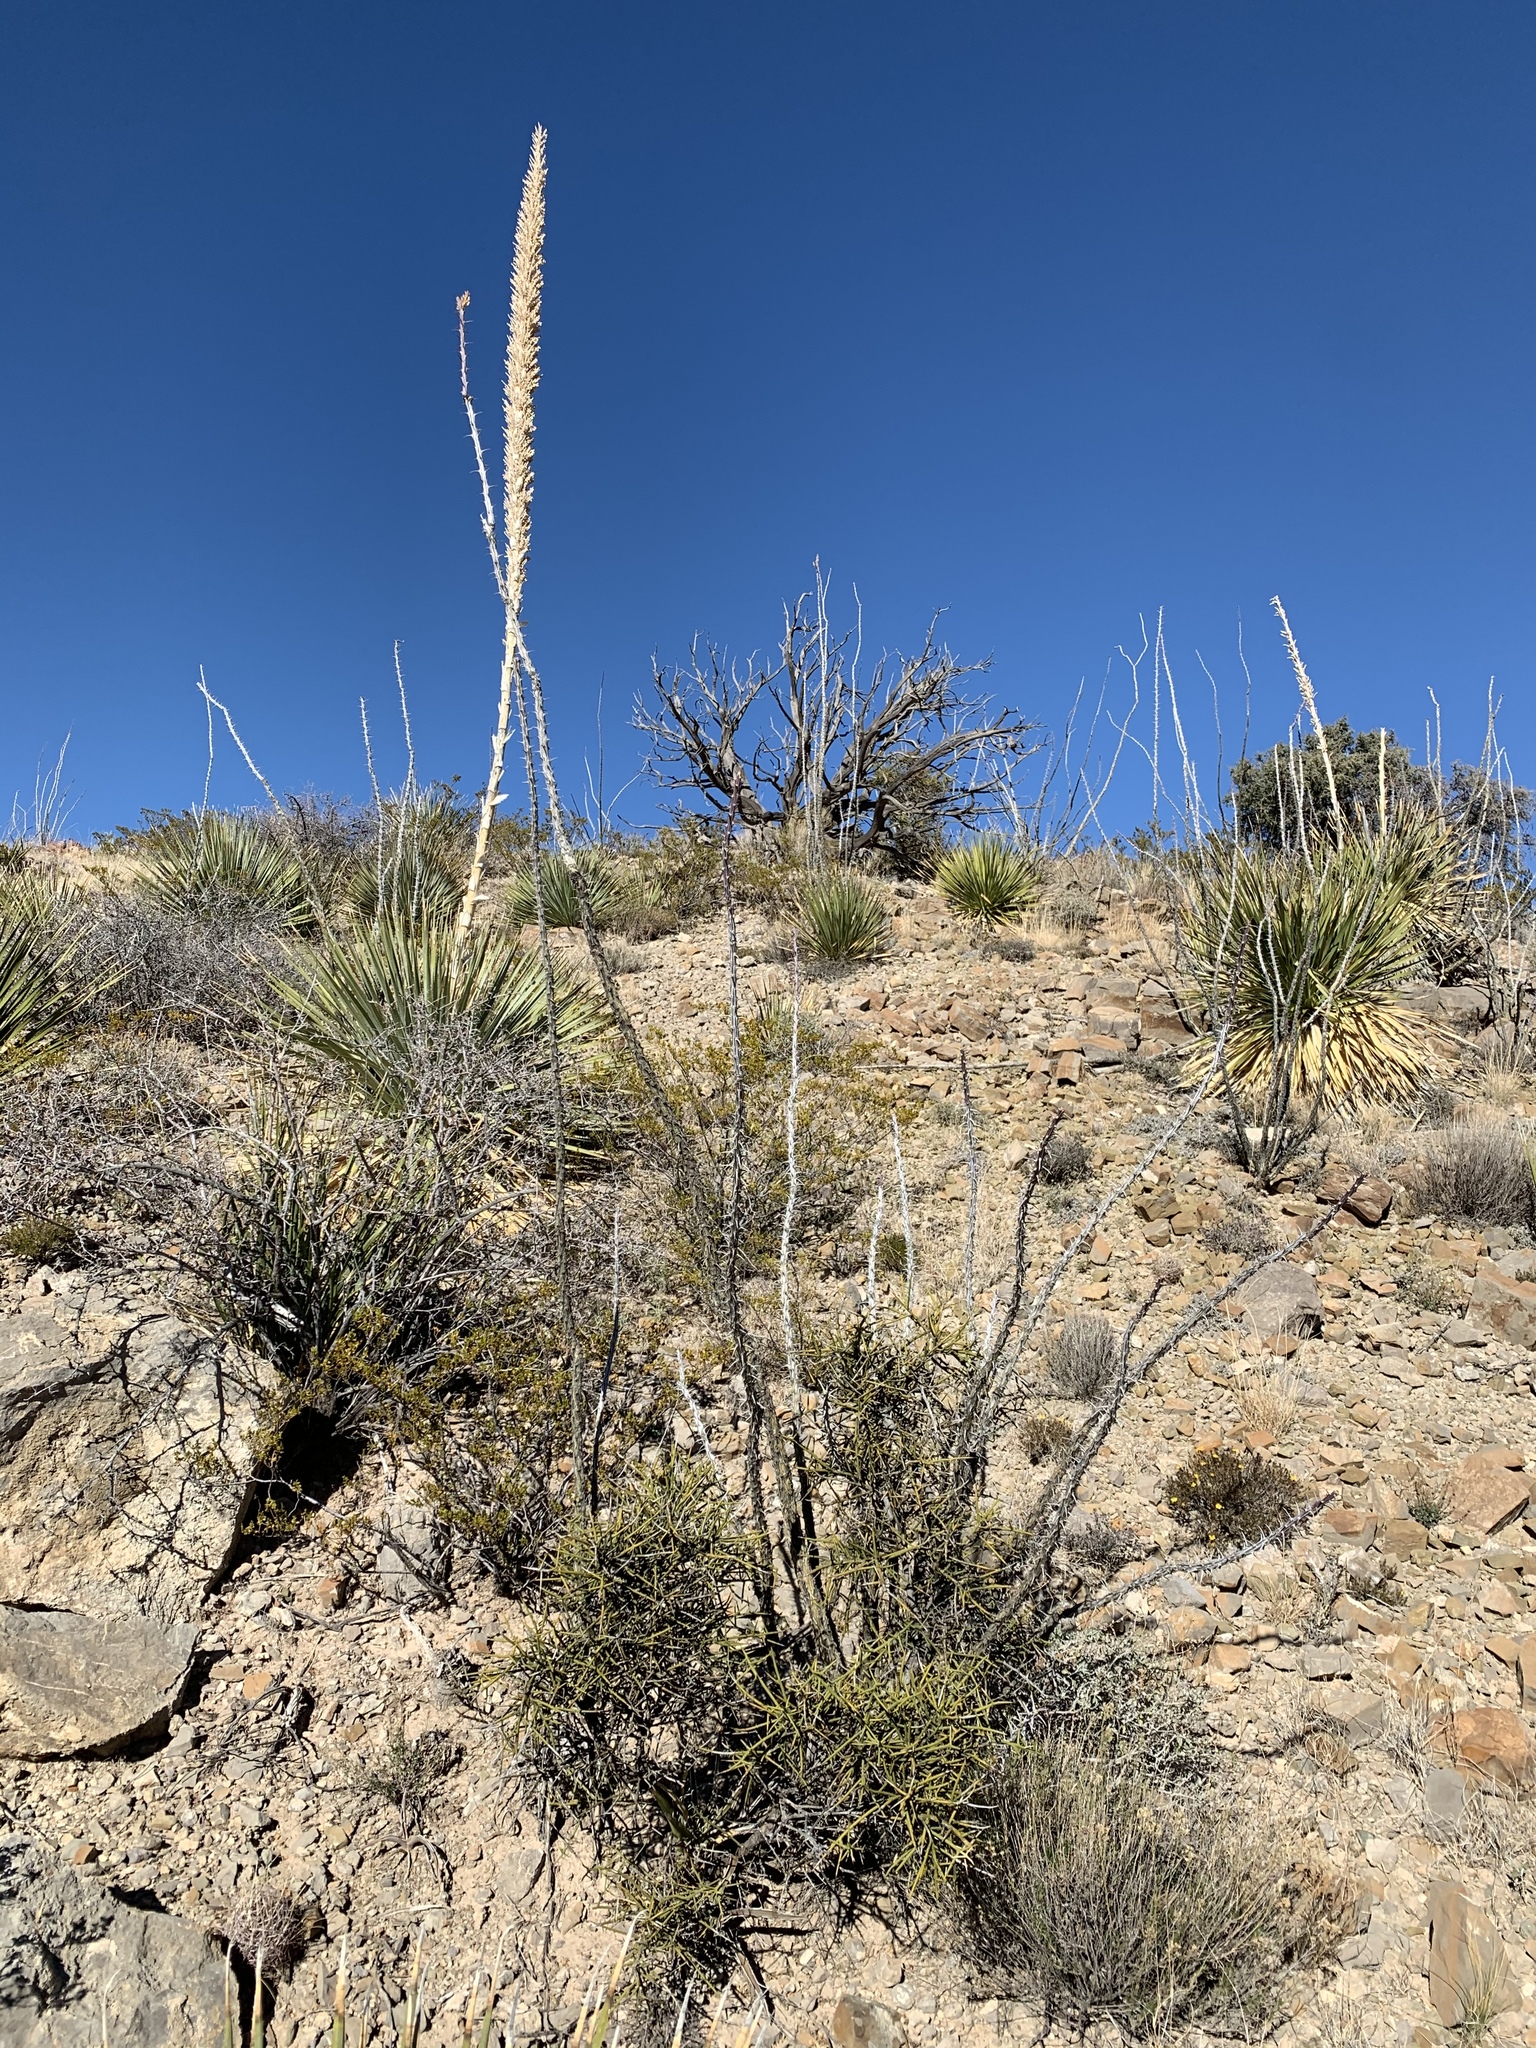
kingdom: Plantae
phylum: Tracheophyta
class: Magnoliopsida
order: Ericales
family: Fouquieriaceae
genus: Fouquieria
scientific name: Fouquieria splendens
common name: Vine-cactus
